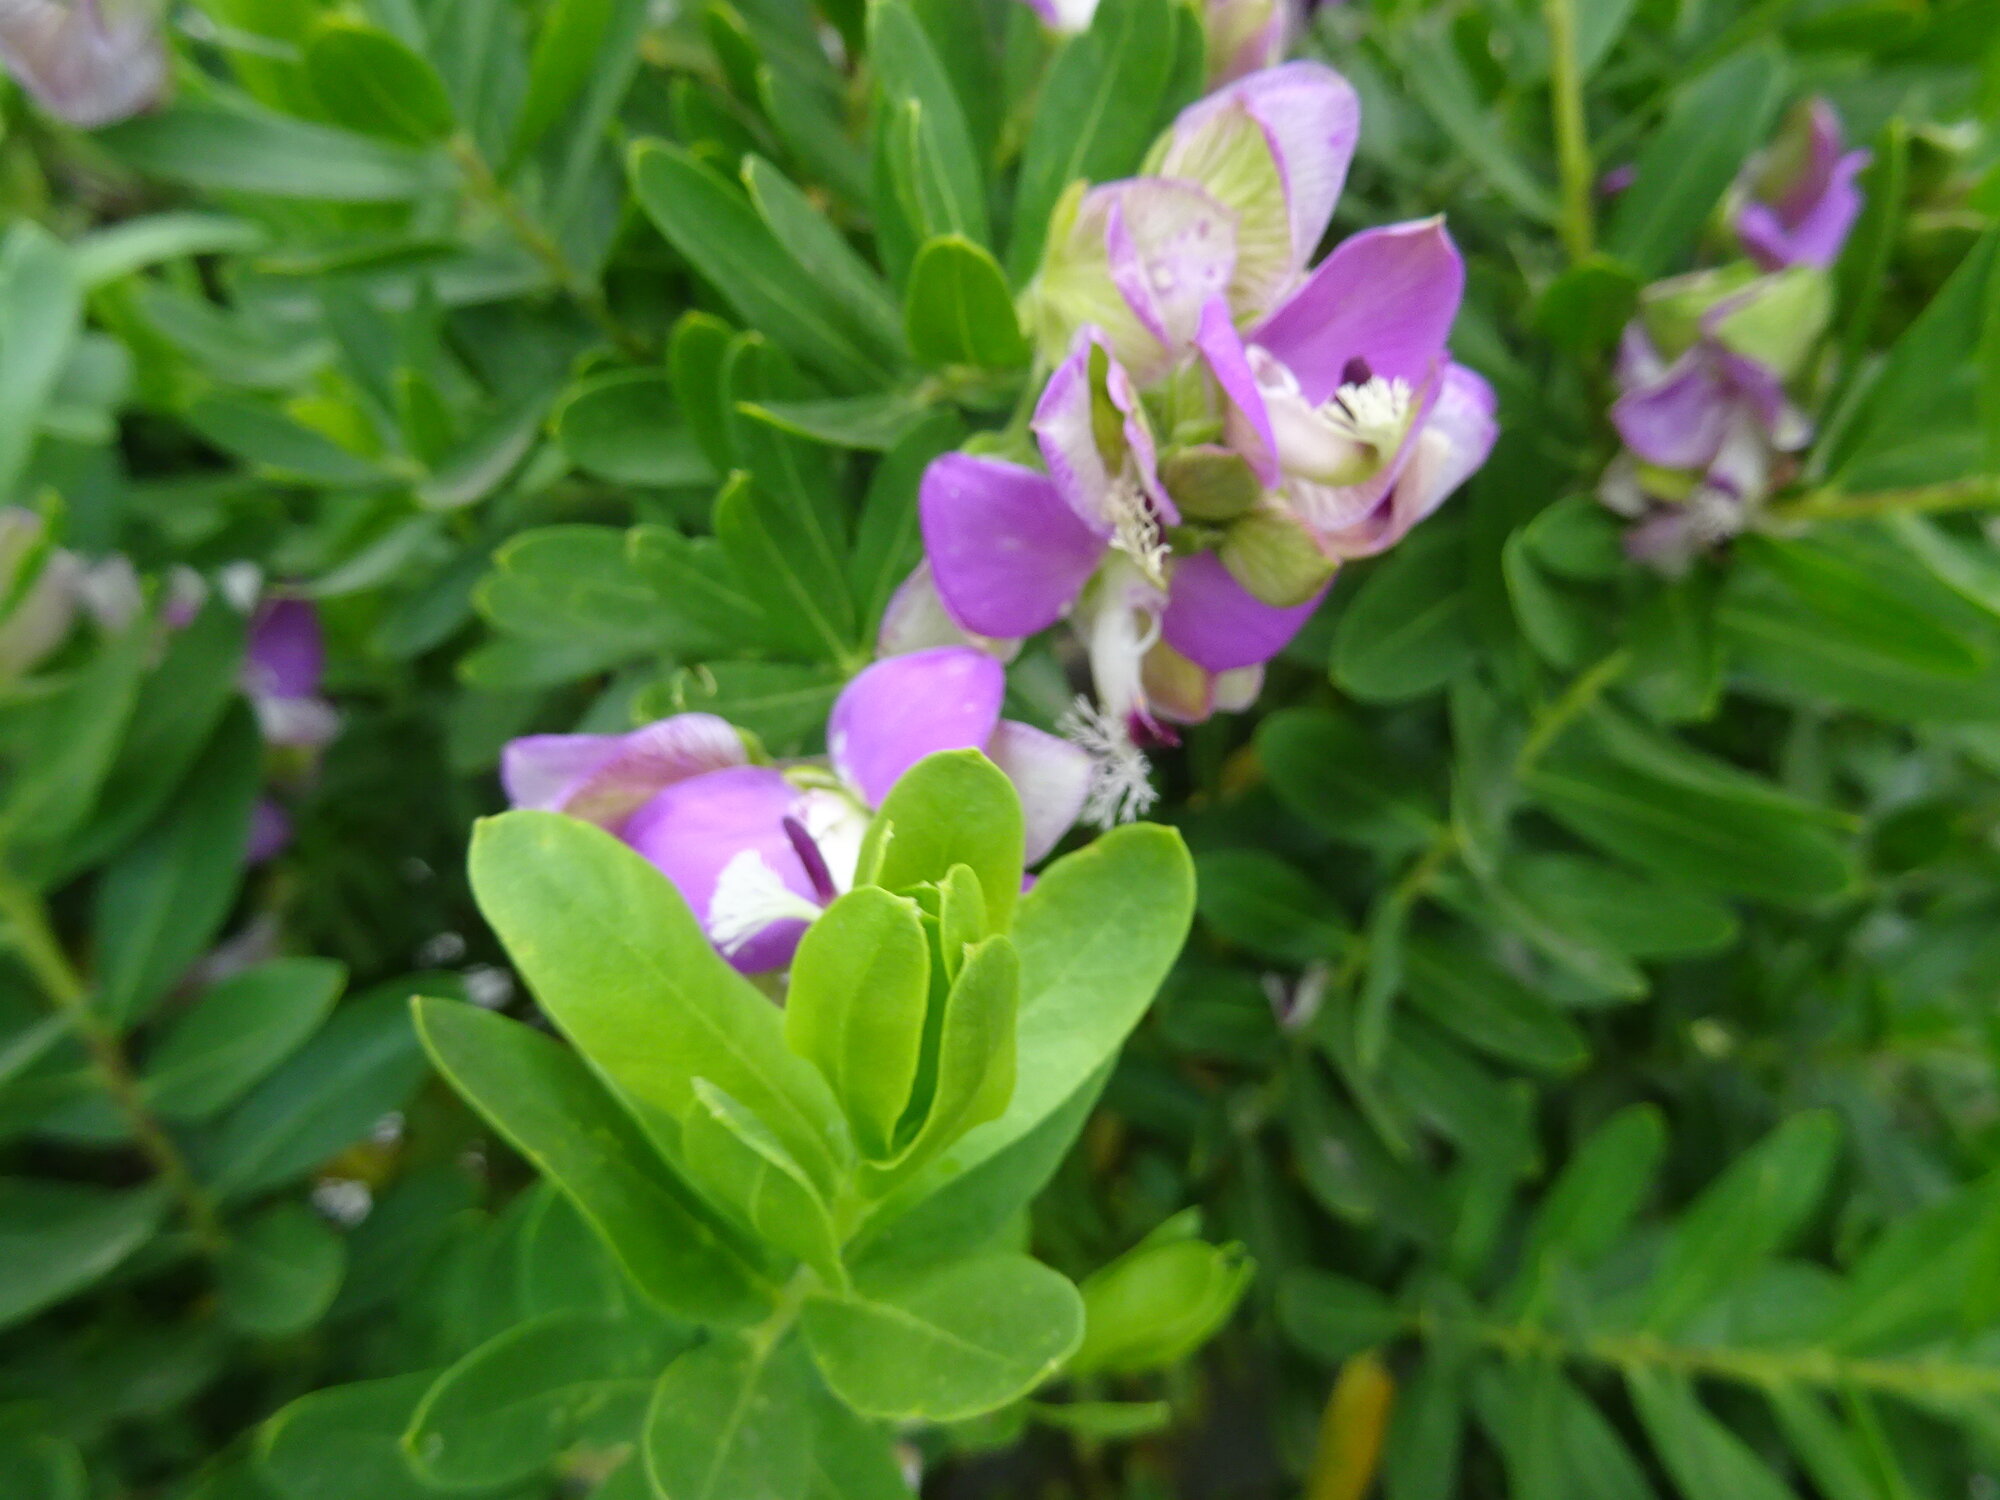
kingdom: Plantae
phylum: Tracheophyta
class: Magnoliopsida
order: Fabales
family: Polygalaceae
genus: Polygala
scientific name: Polygala myrtifolia
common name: Myrtle-leaf milkwort
